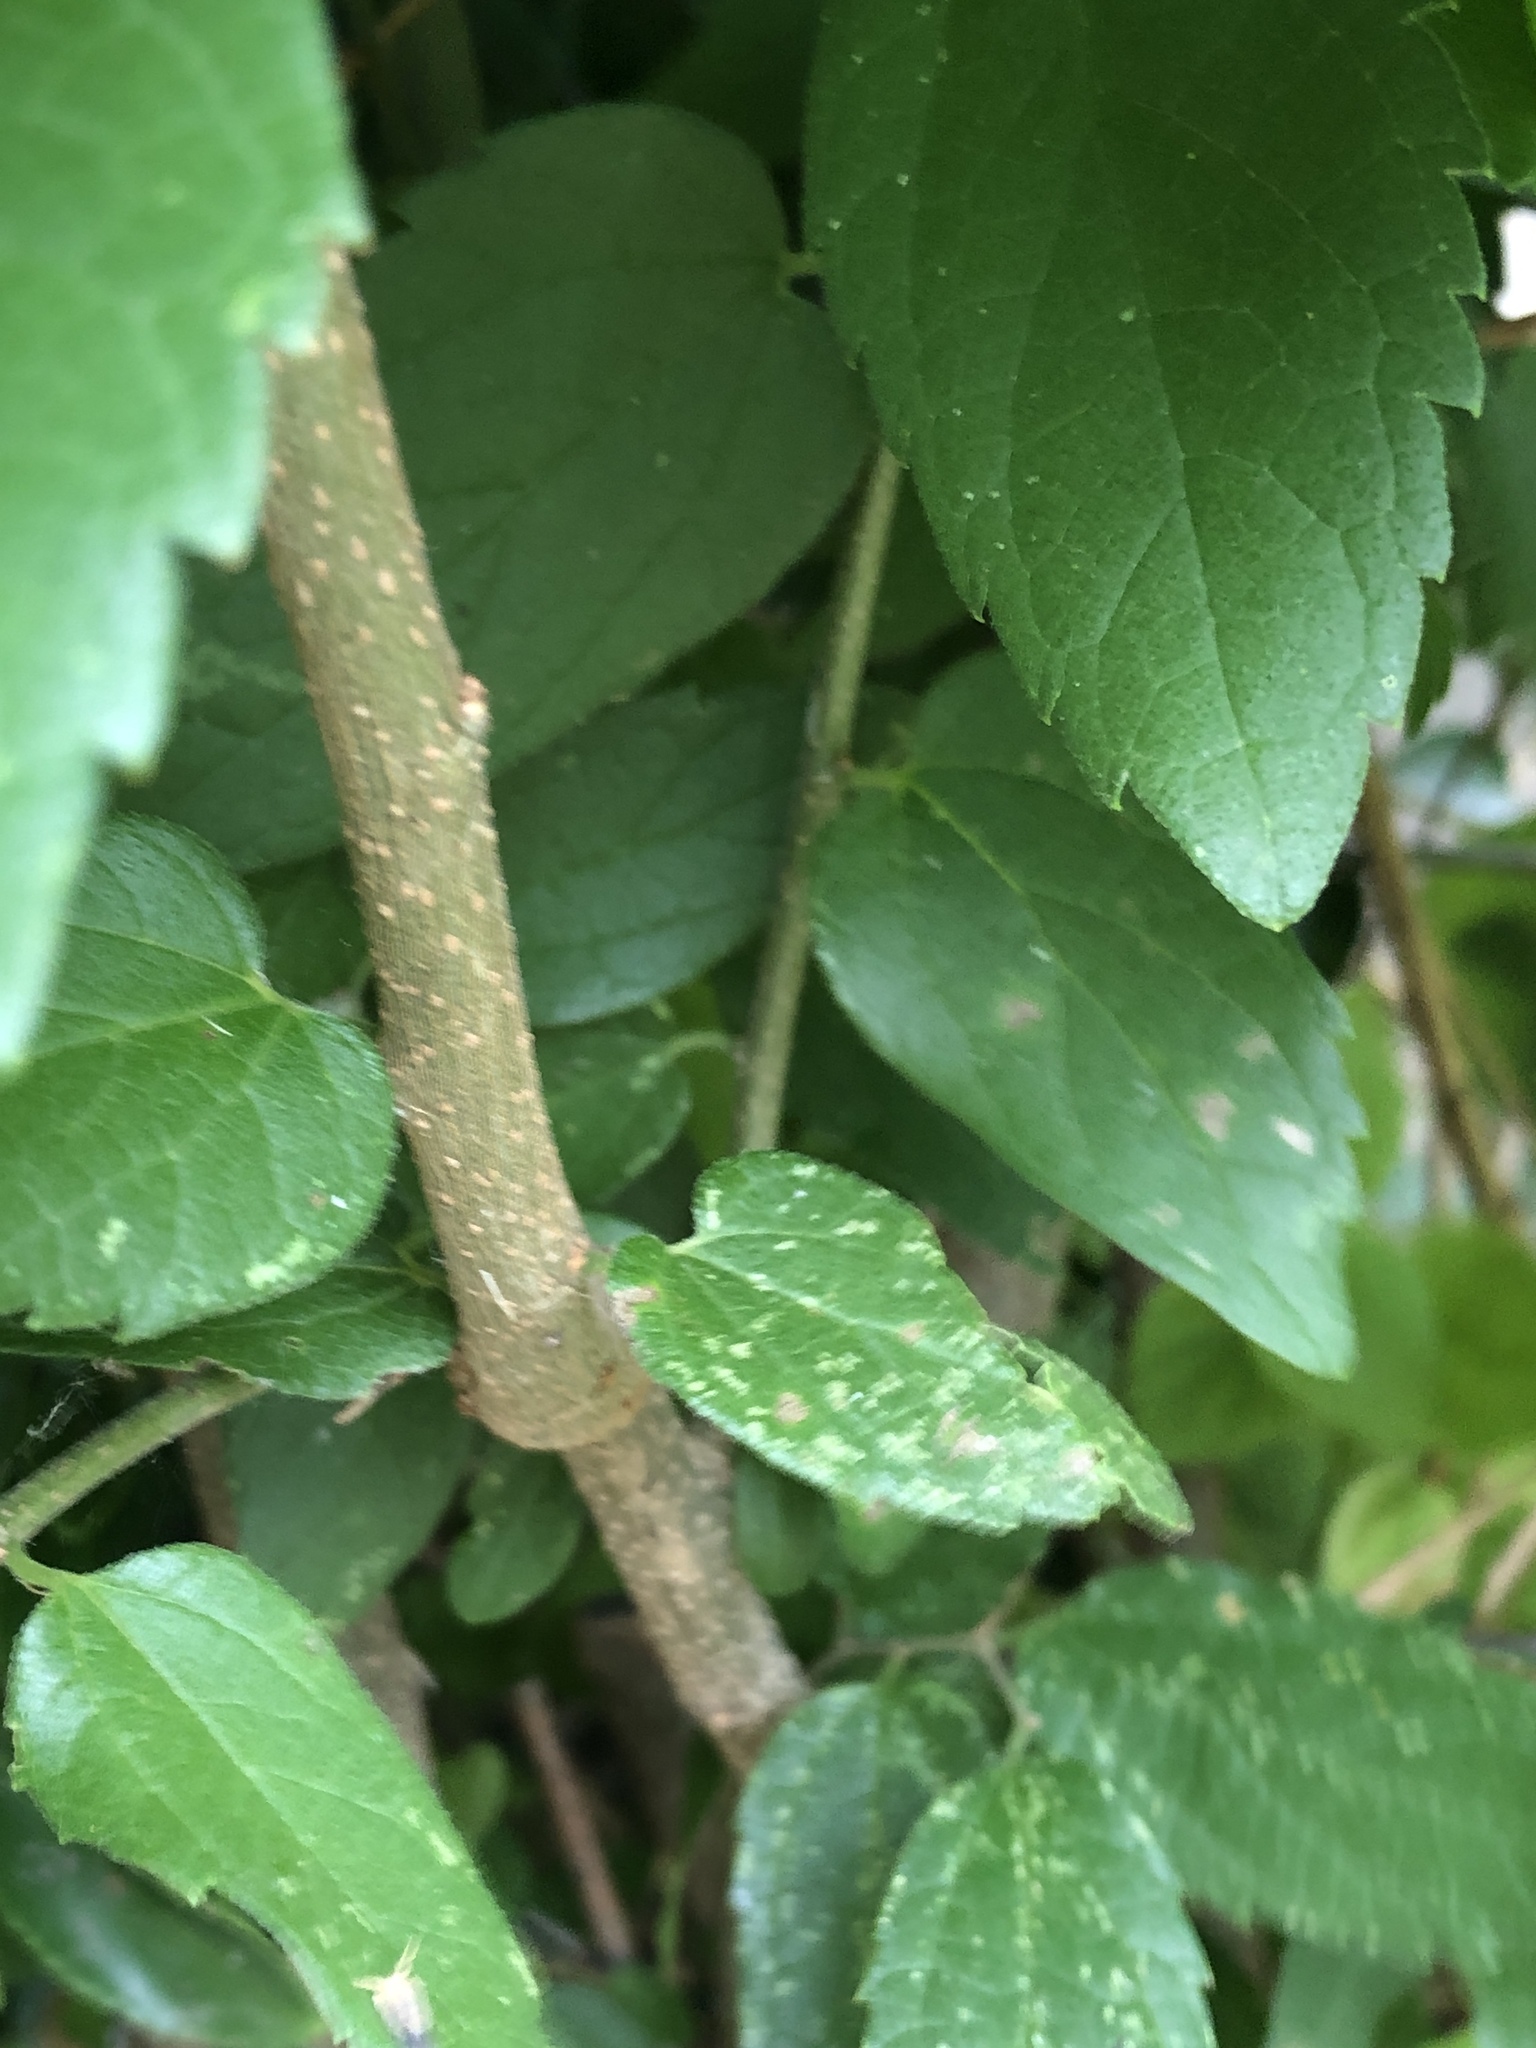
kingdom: Plantae
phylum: Tracheophyta
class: Magnoliopsida
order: Rosales
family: Cannabaceae
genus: Celtis
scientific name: Celtis laevigata
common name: Sugarberry
